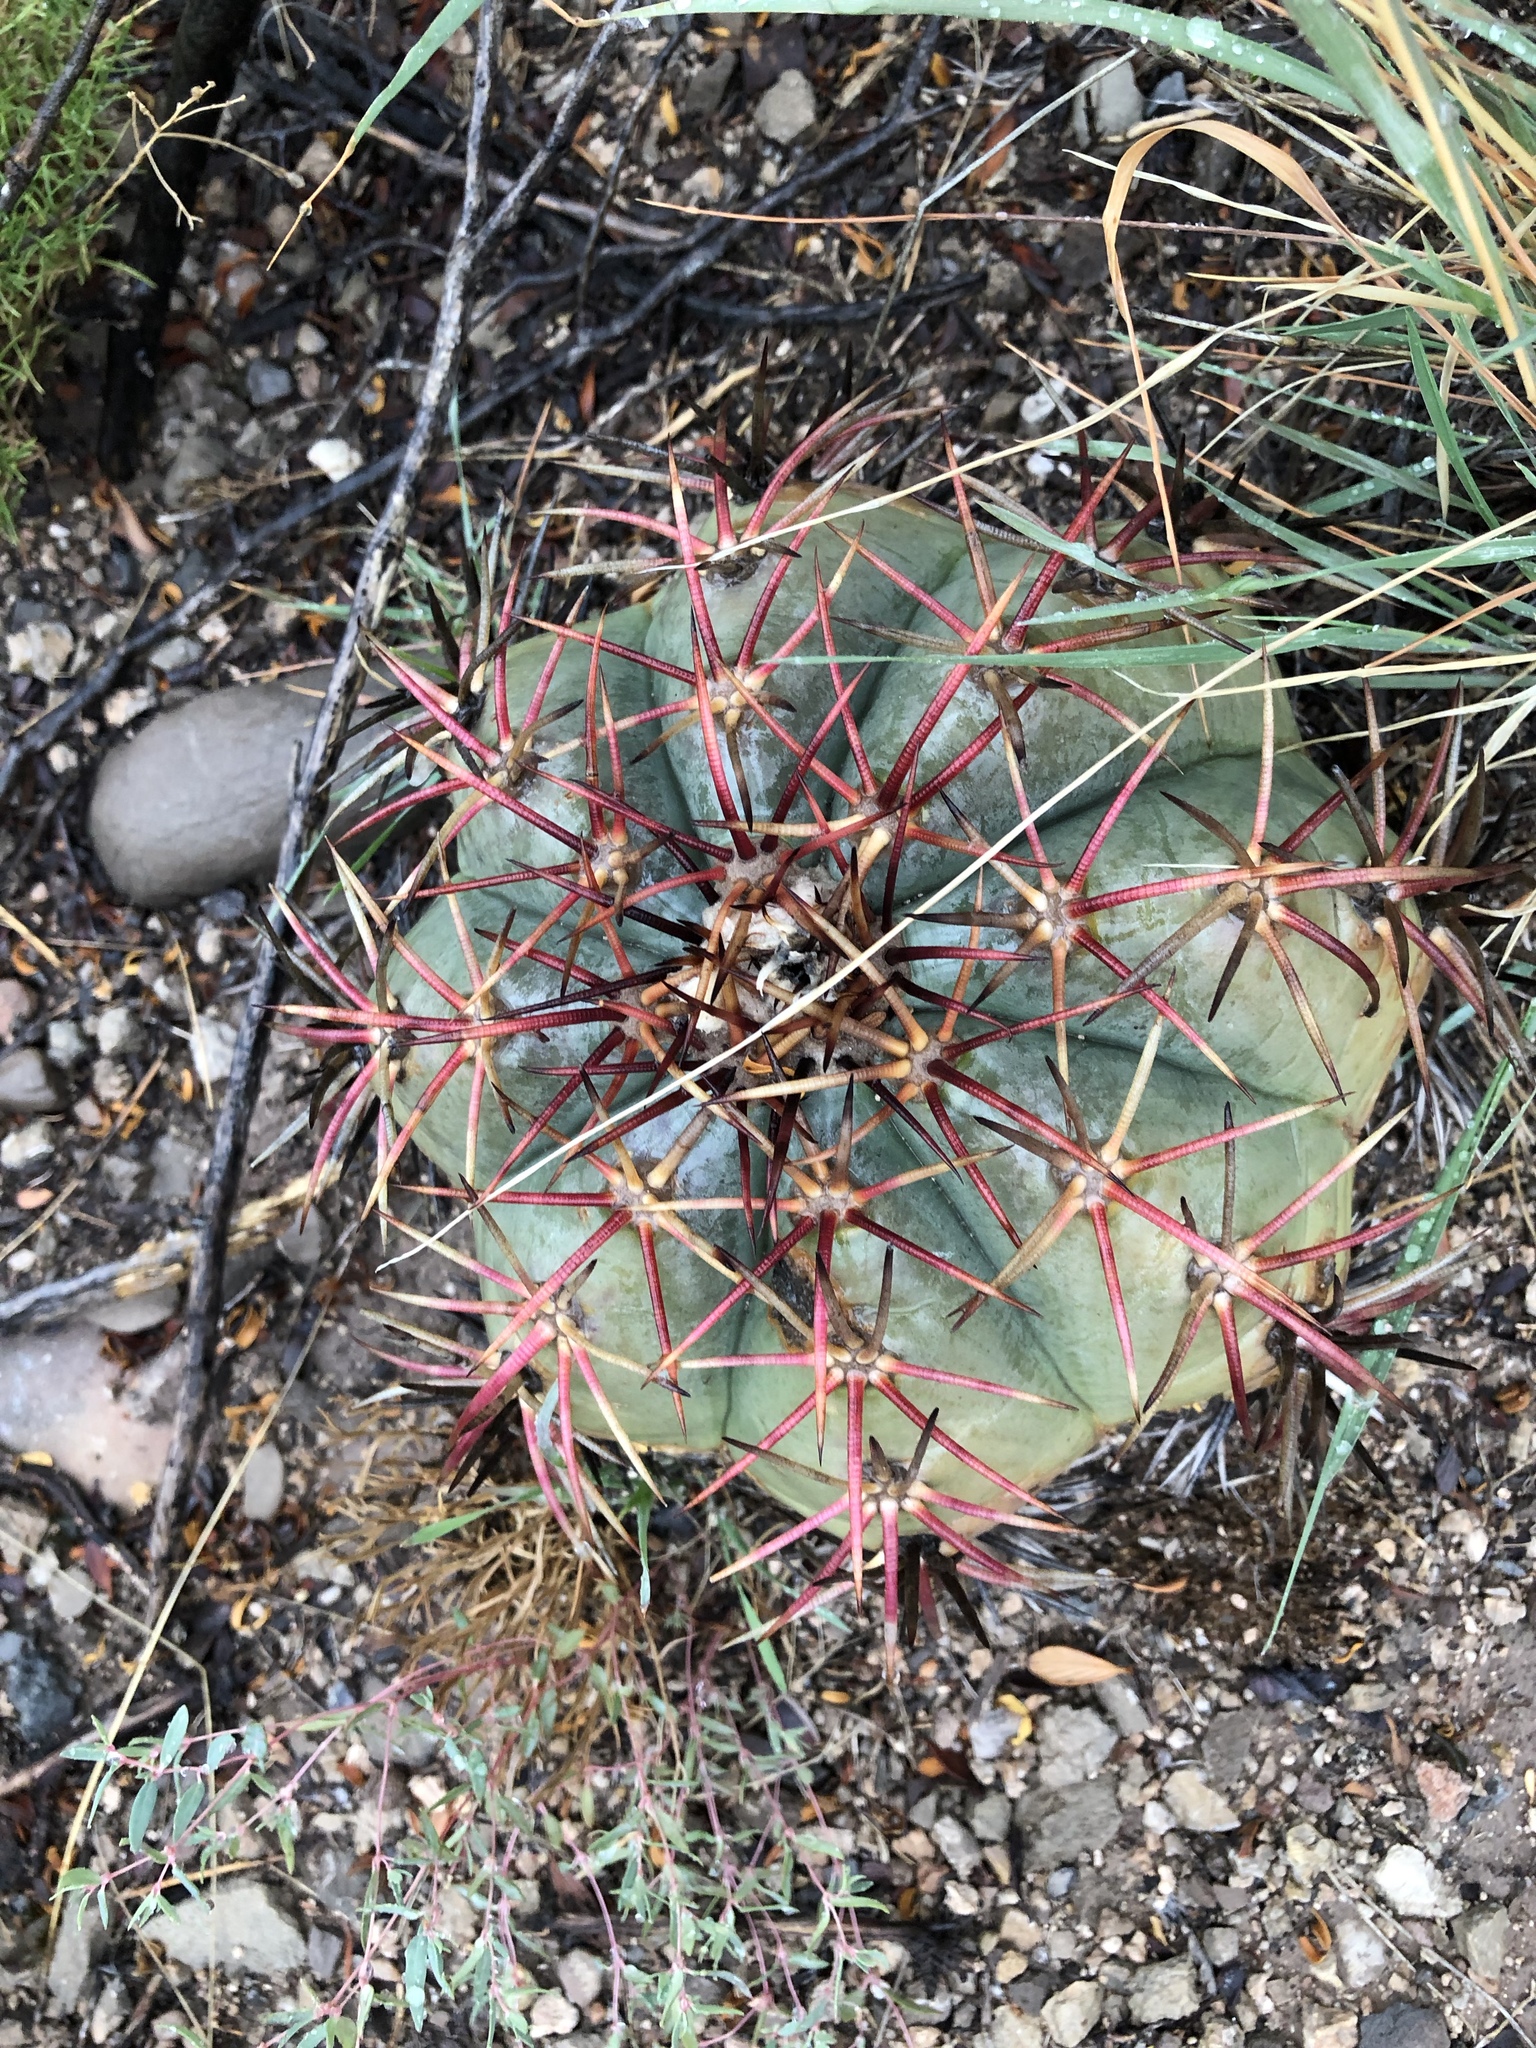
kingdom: Plantae
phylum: Tracheophyta
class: Magnoliopsida
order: Caryophyllales
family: Cactaceae
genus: Echinocactus
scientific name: Echinocactus horizonthalonius
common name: Devilshead
